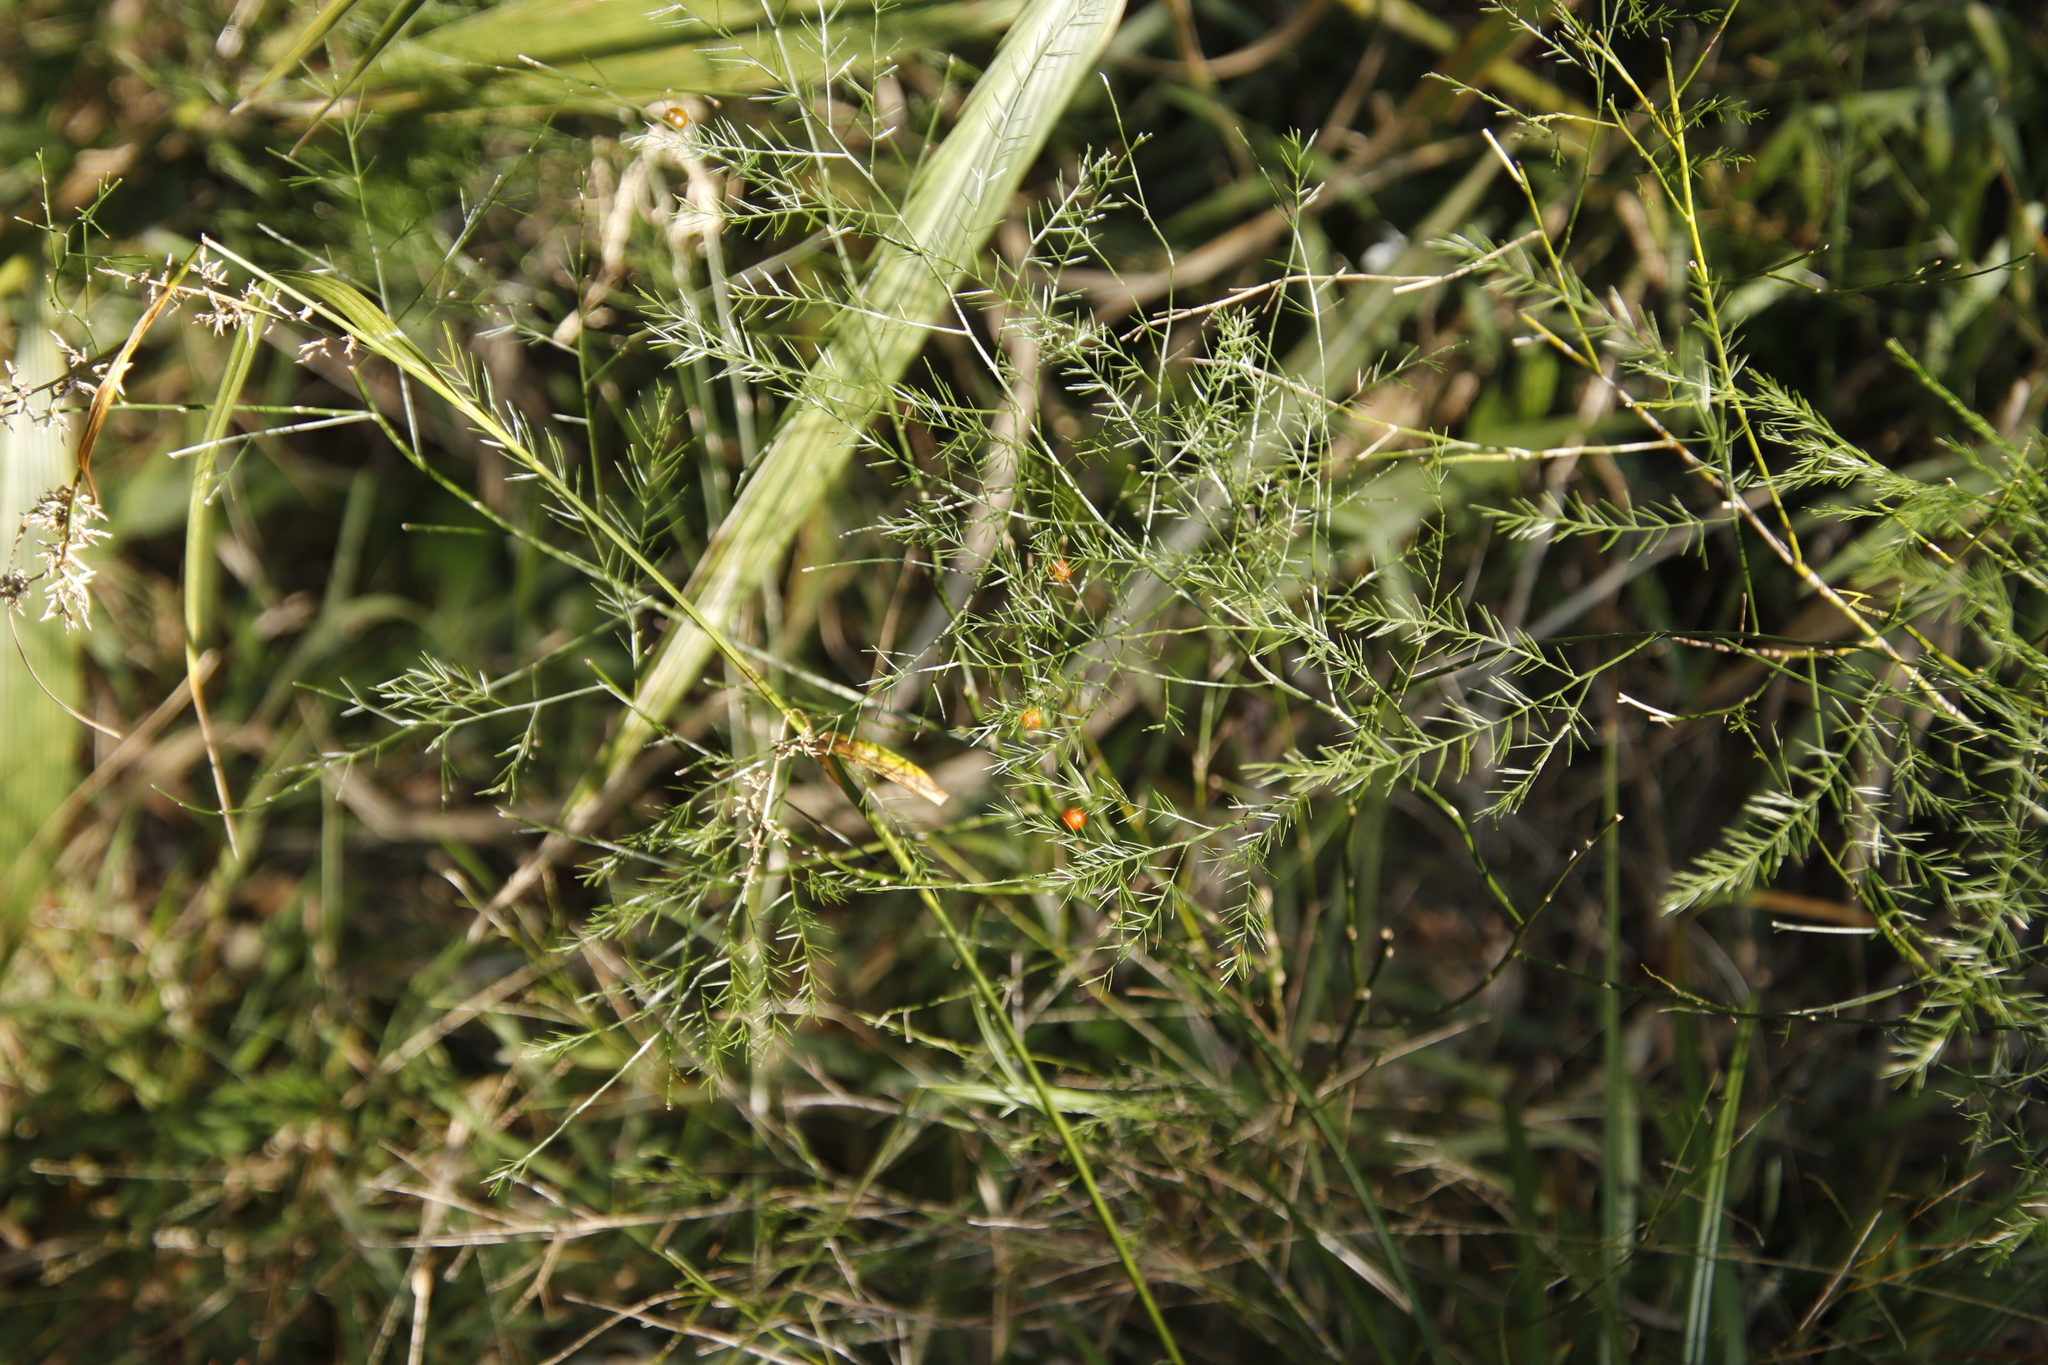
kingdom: Plantae
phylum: Tracheophyta
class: Liliopsida
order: Asparagales
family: Asparagaceae
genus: Asparagus
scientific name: Asparagus virgatus
